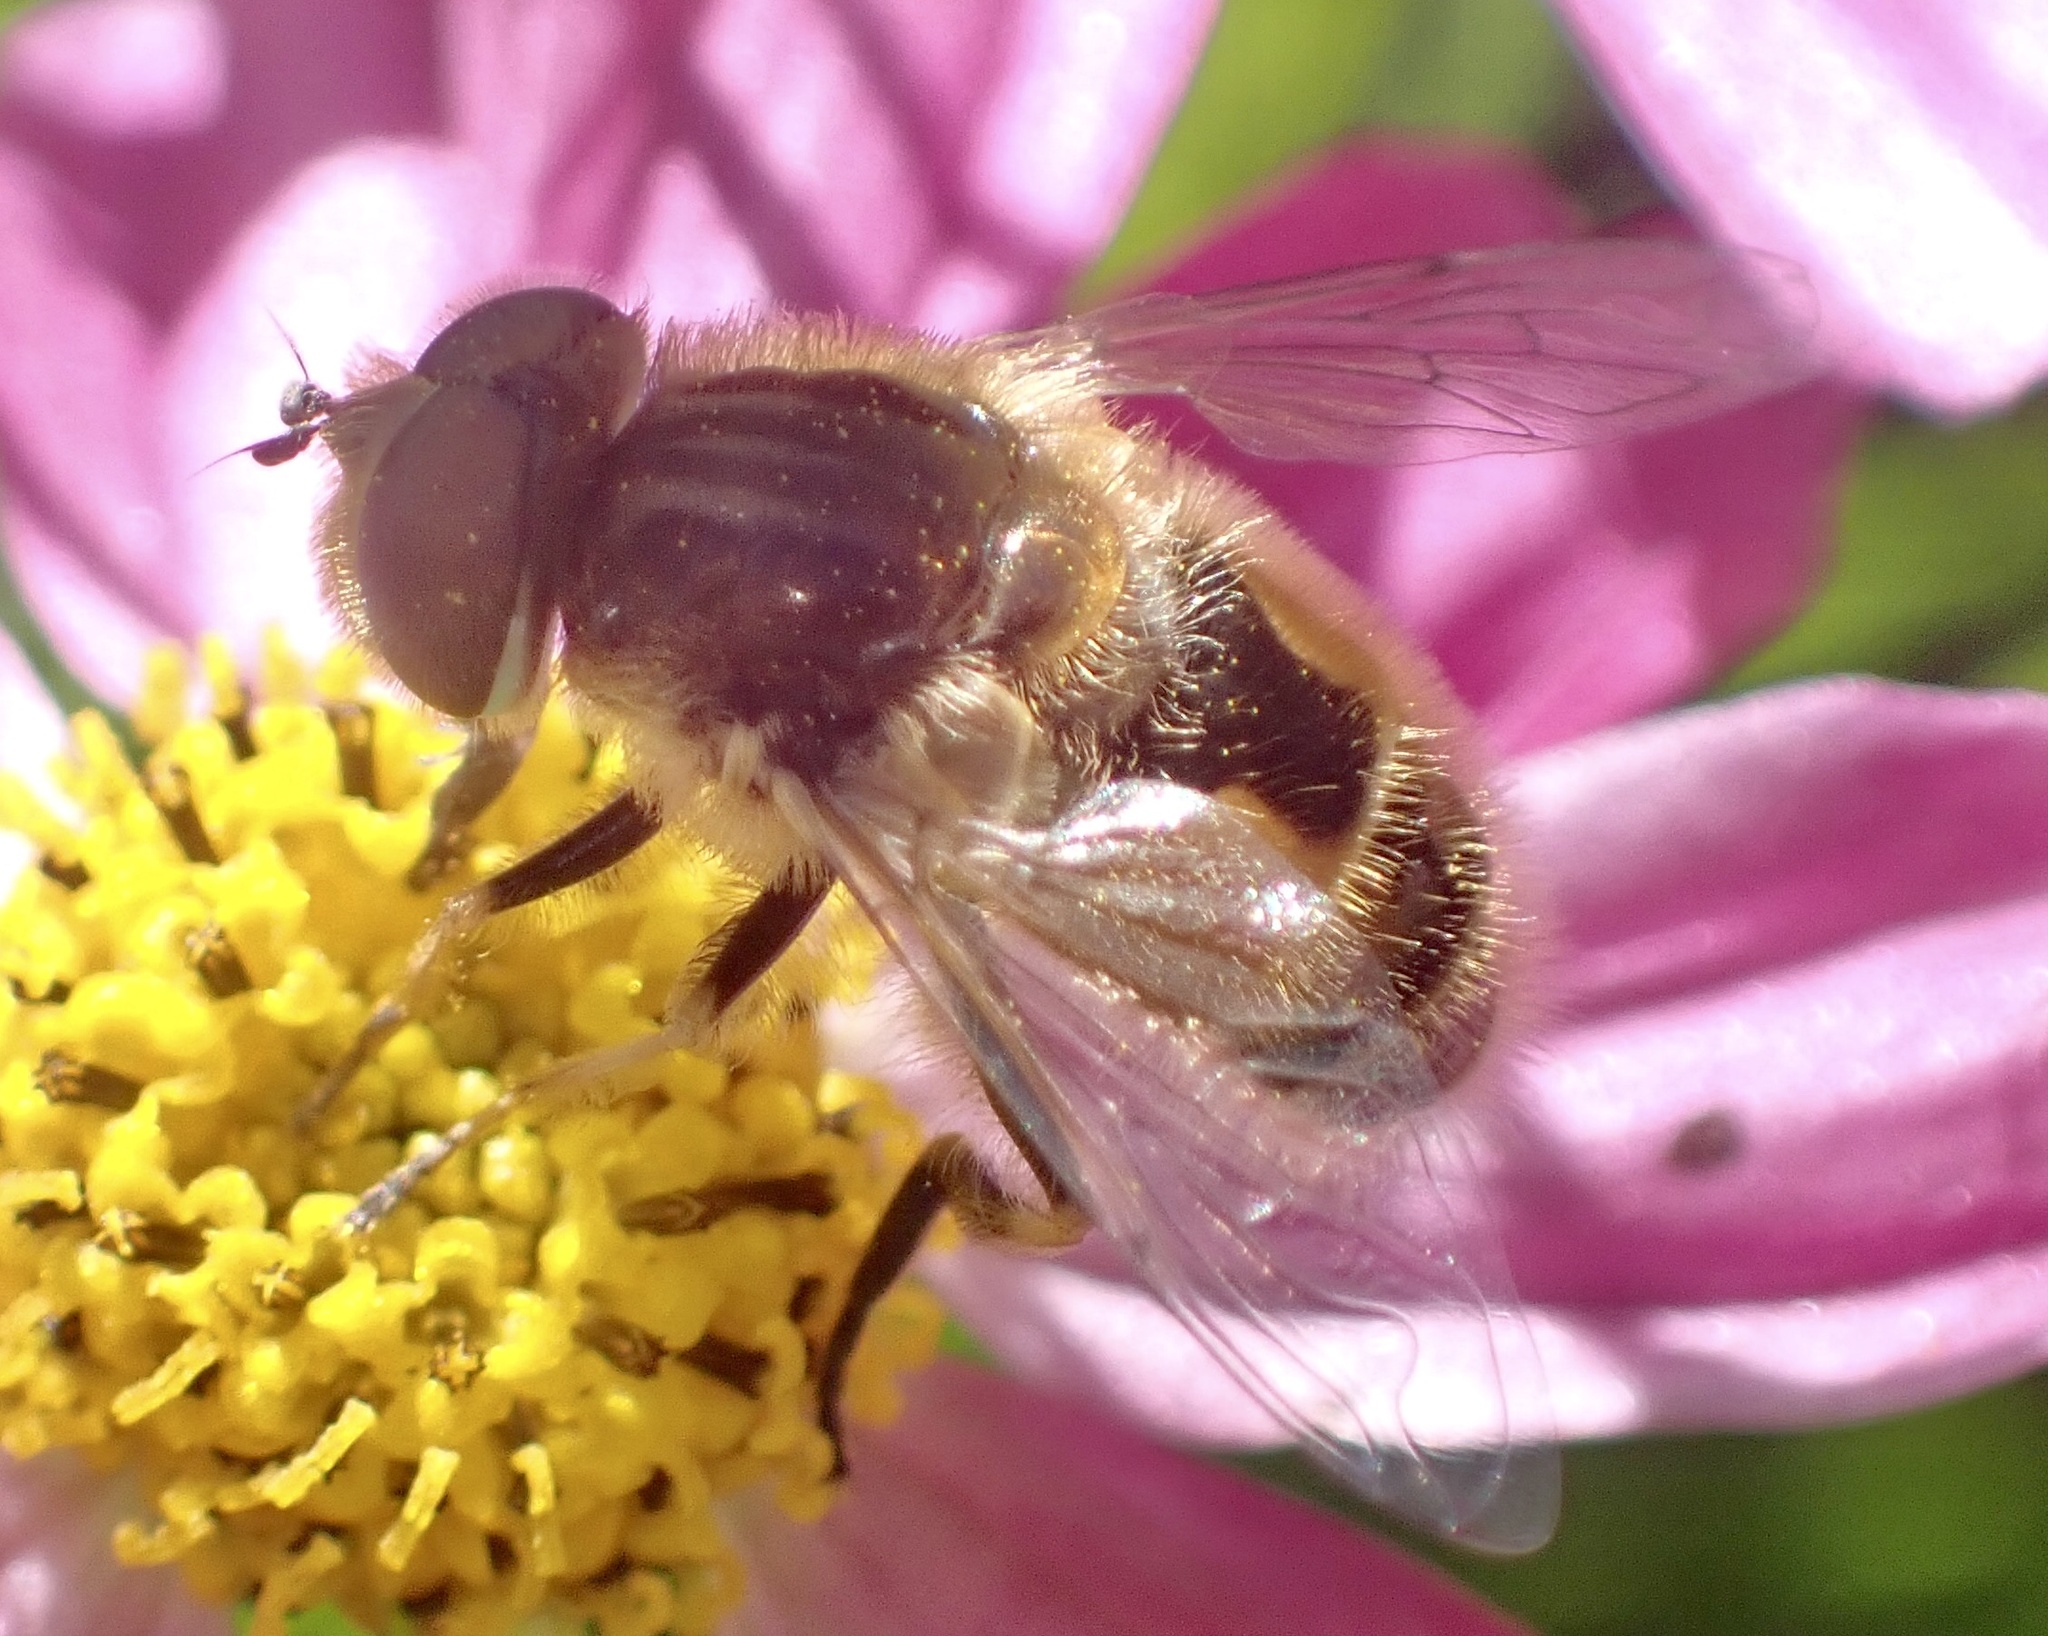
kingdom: Animalia
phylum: Arthropoda
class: Insecta
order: Diptera
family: Syrphidae
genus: Eristalis
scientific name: Eristalis abusivus
